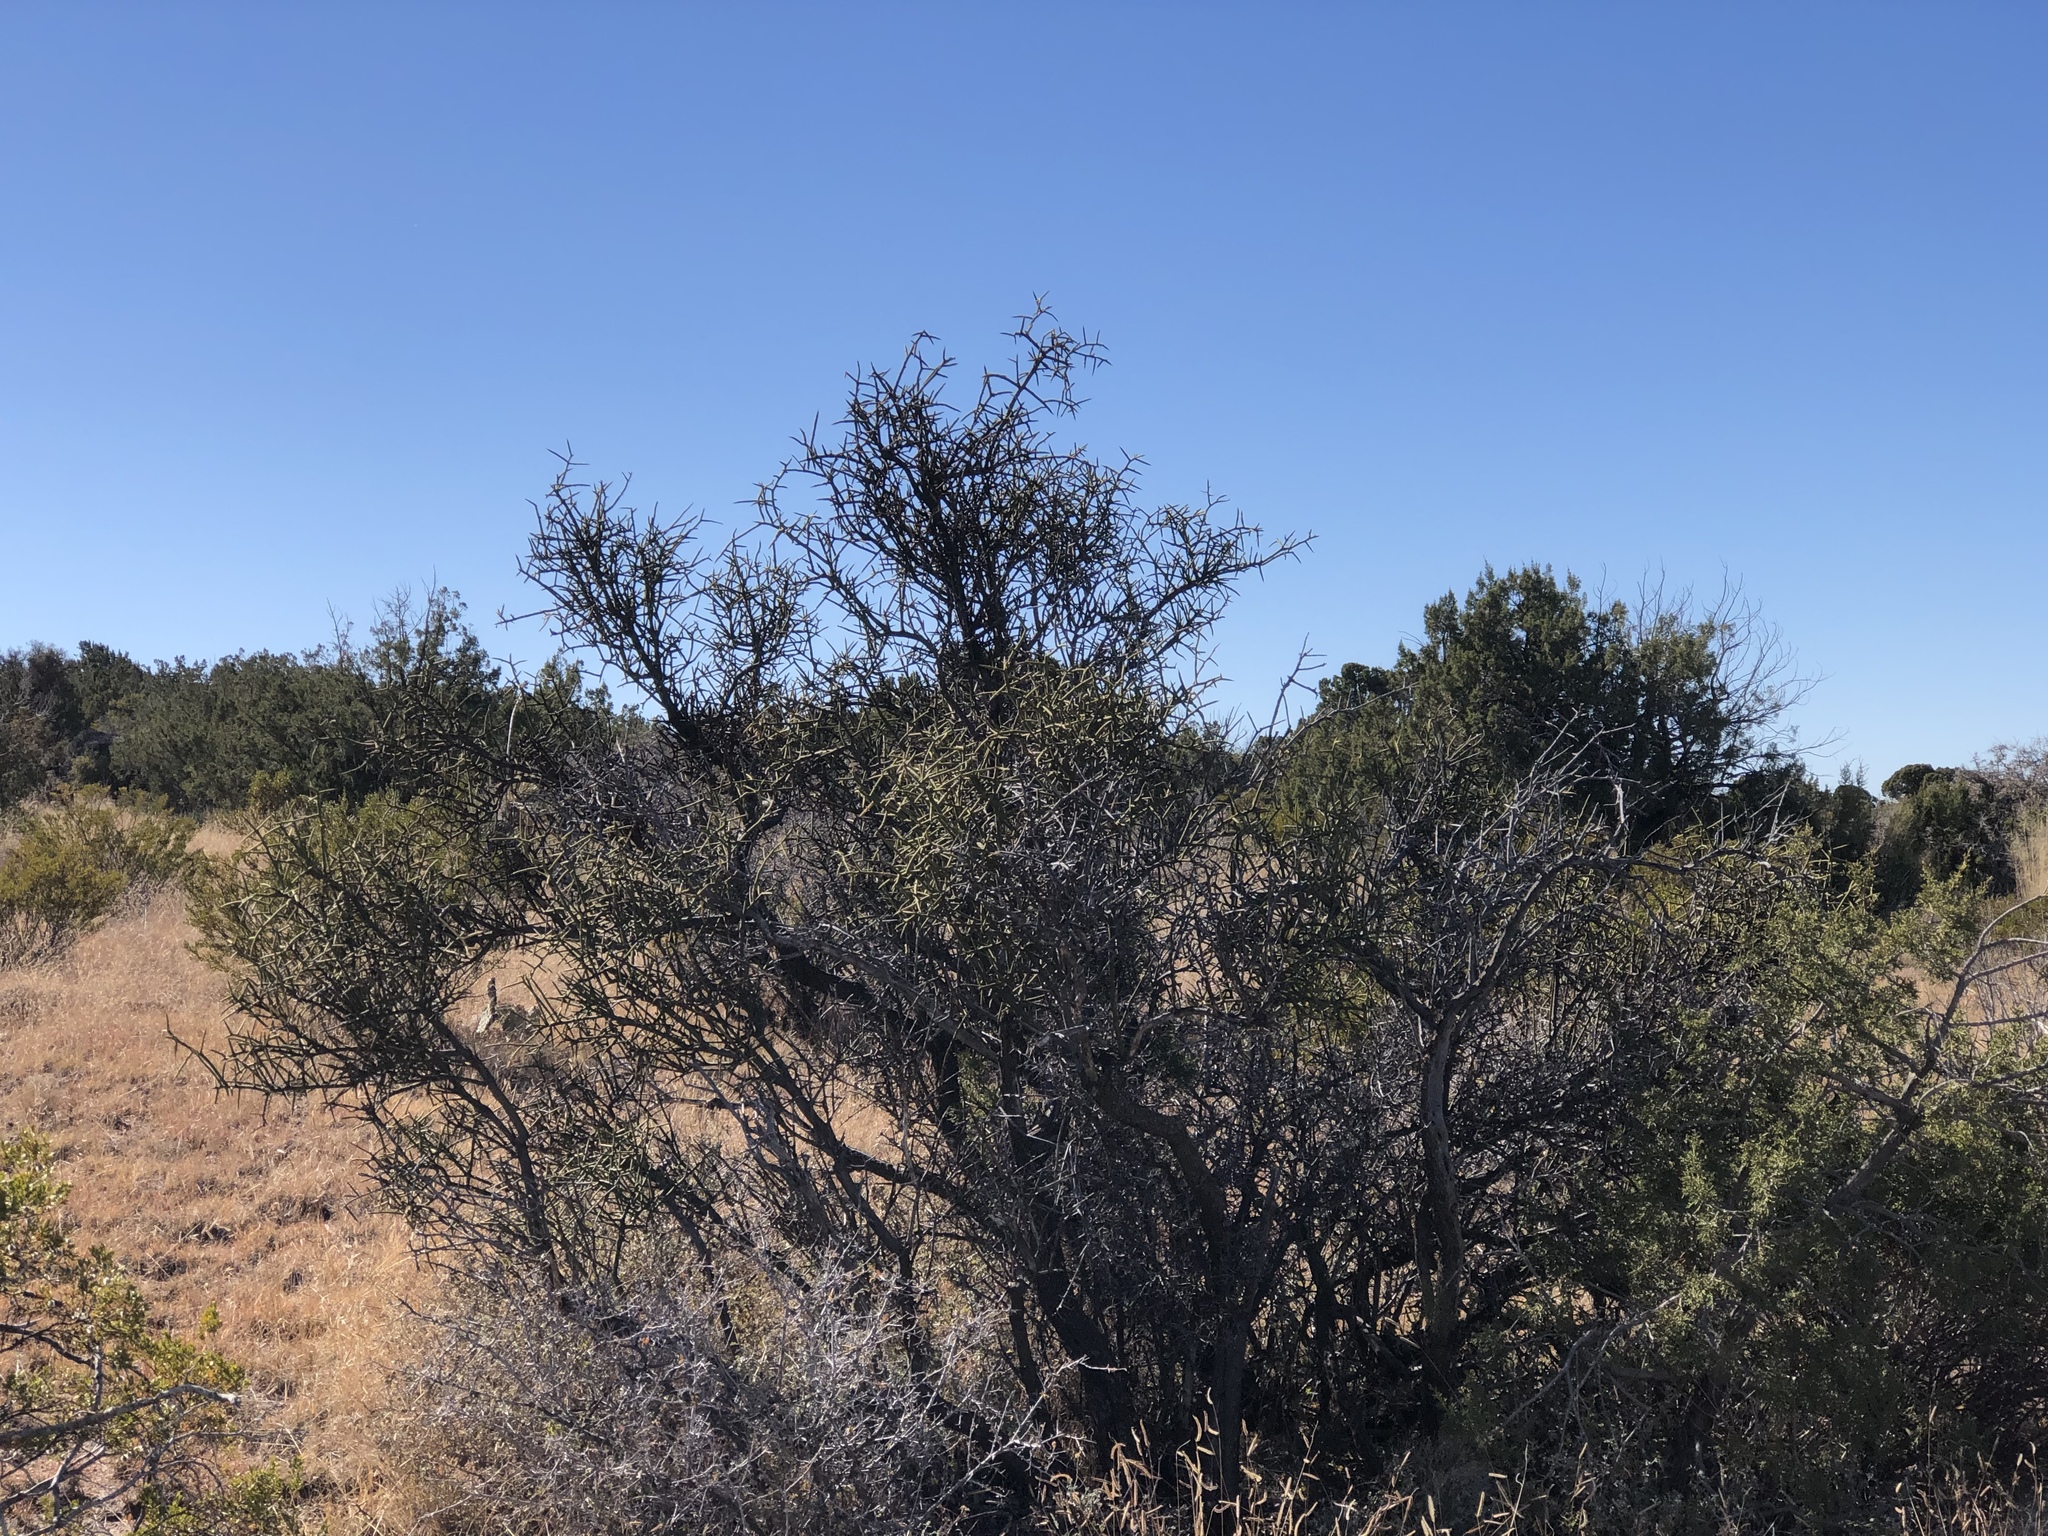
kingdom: Plantae
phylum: Tracheophyta
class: Magnoliopsida
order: Brassicales
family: Koeberliniaceae
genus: Koeberlinia
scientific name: Koeberlinia spinosa
